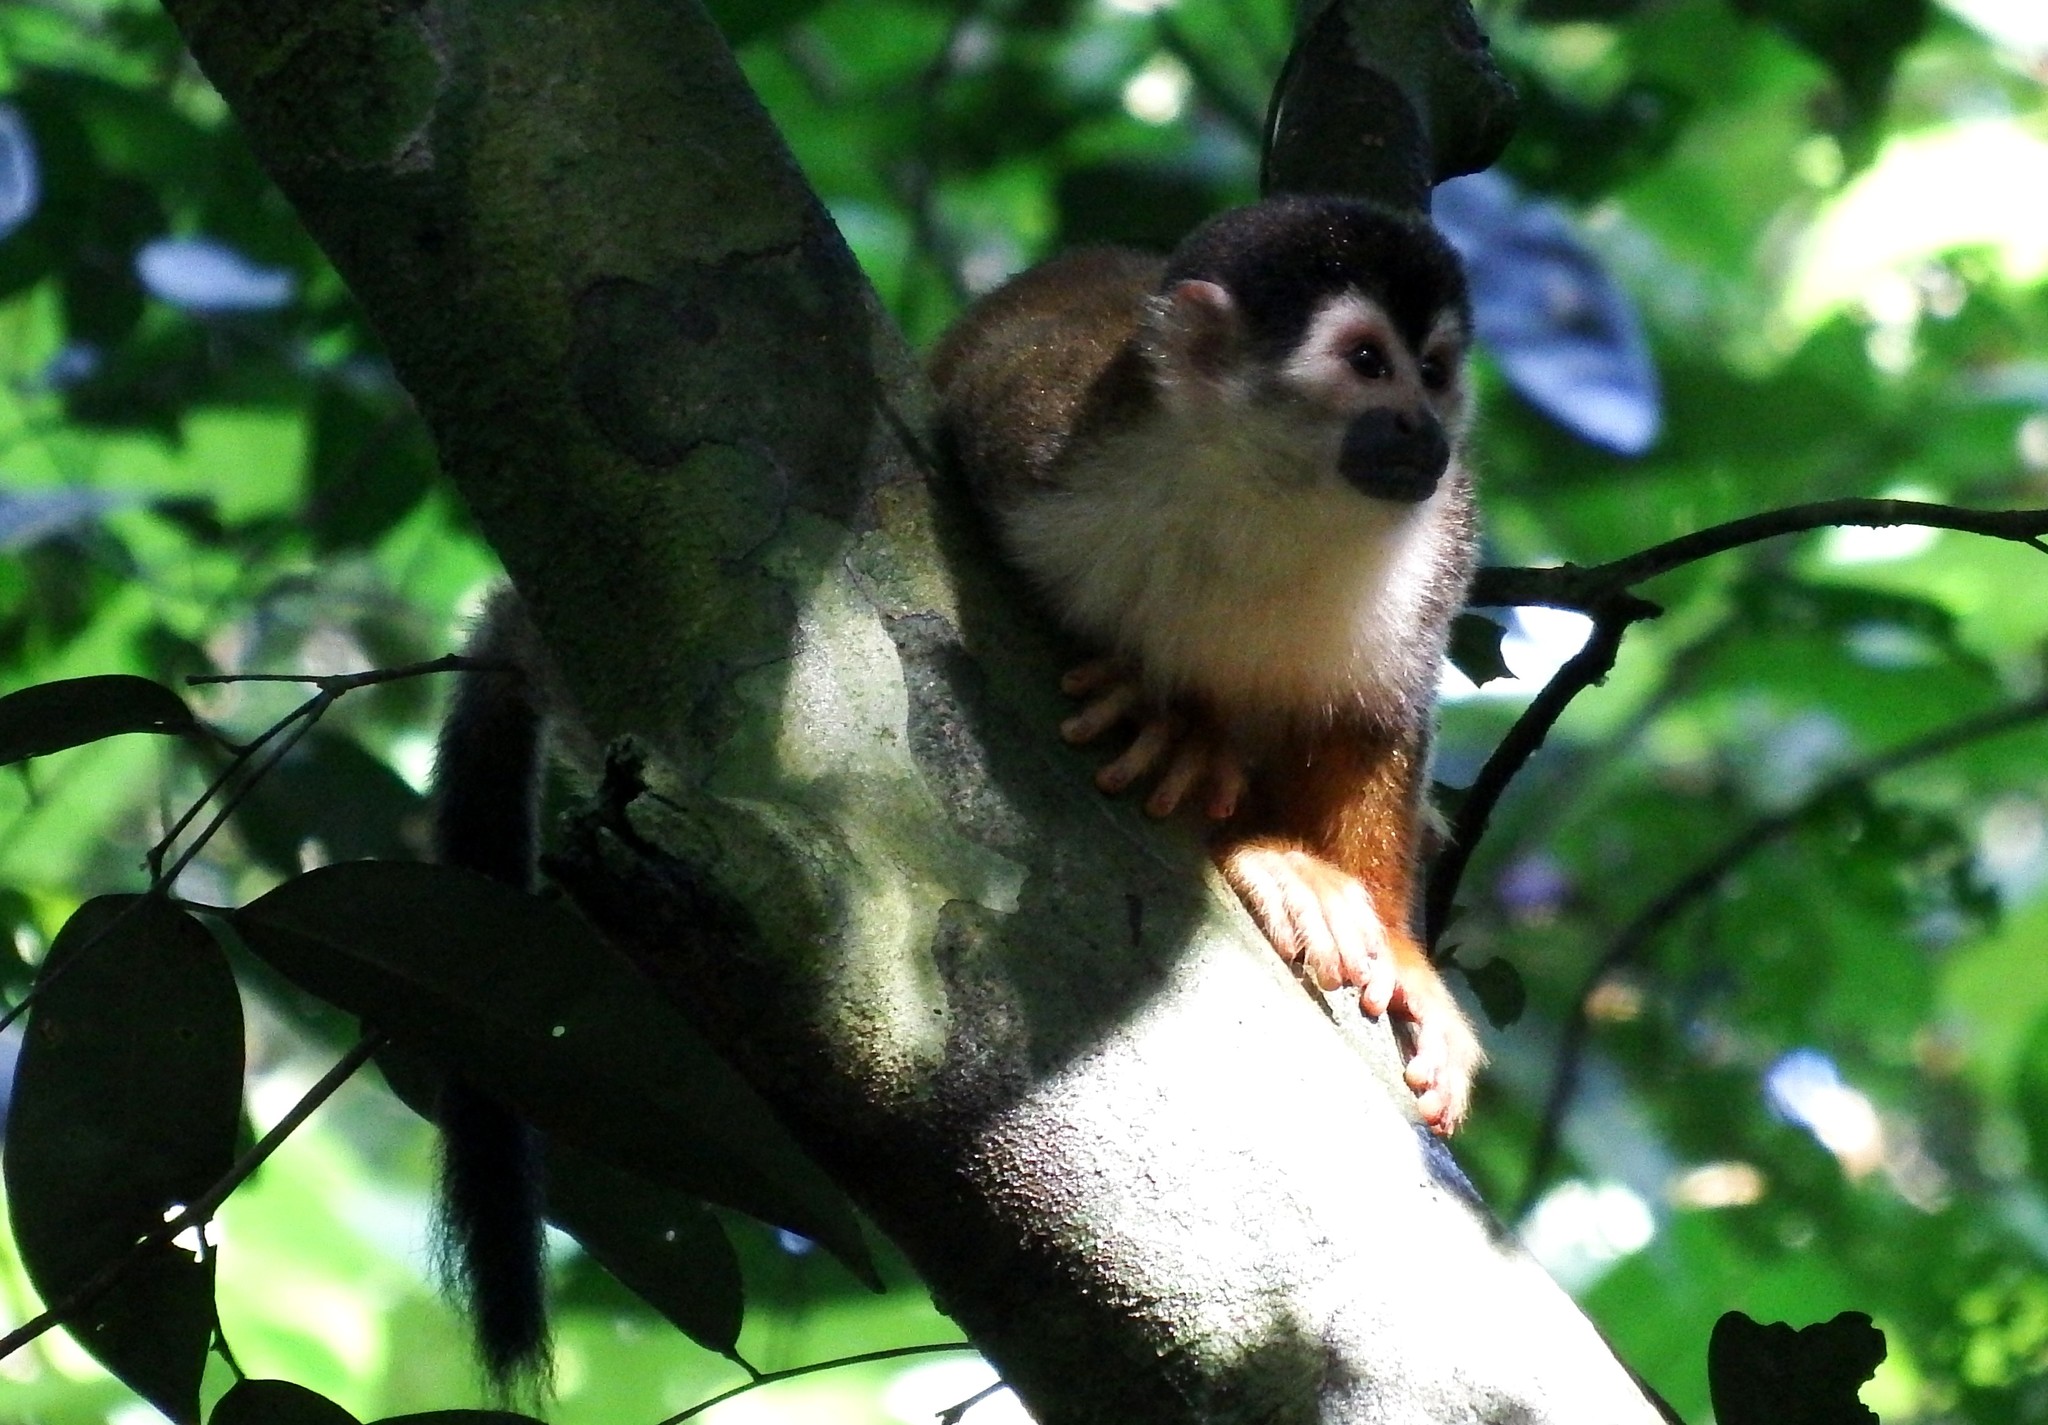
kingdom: Animalia
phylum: Chordata
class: Mammalia
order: Primates
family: Cebidae
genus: Saimiri
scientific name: Saimiri oerstedii
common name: Central american squirrel monkey
